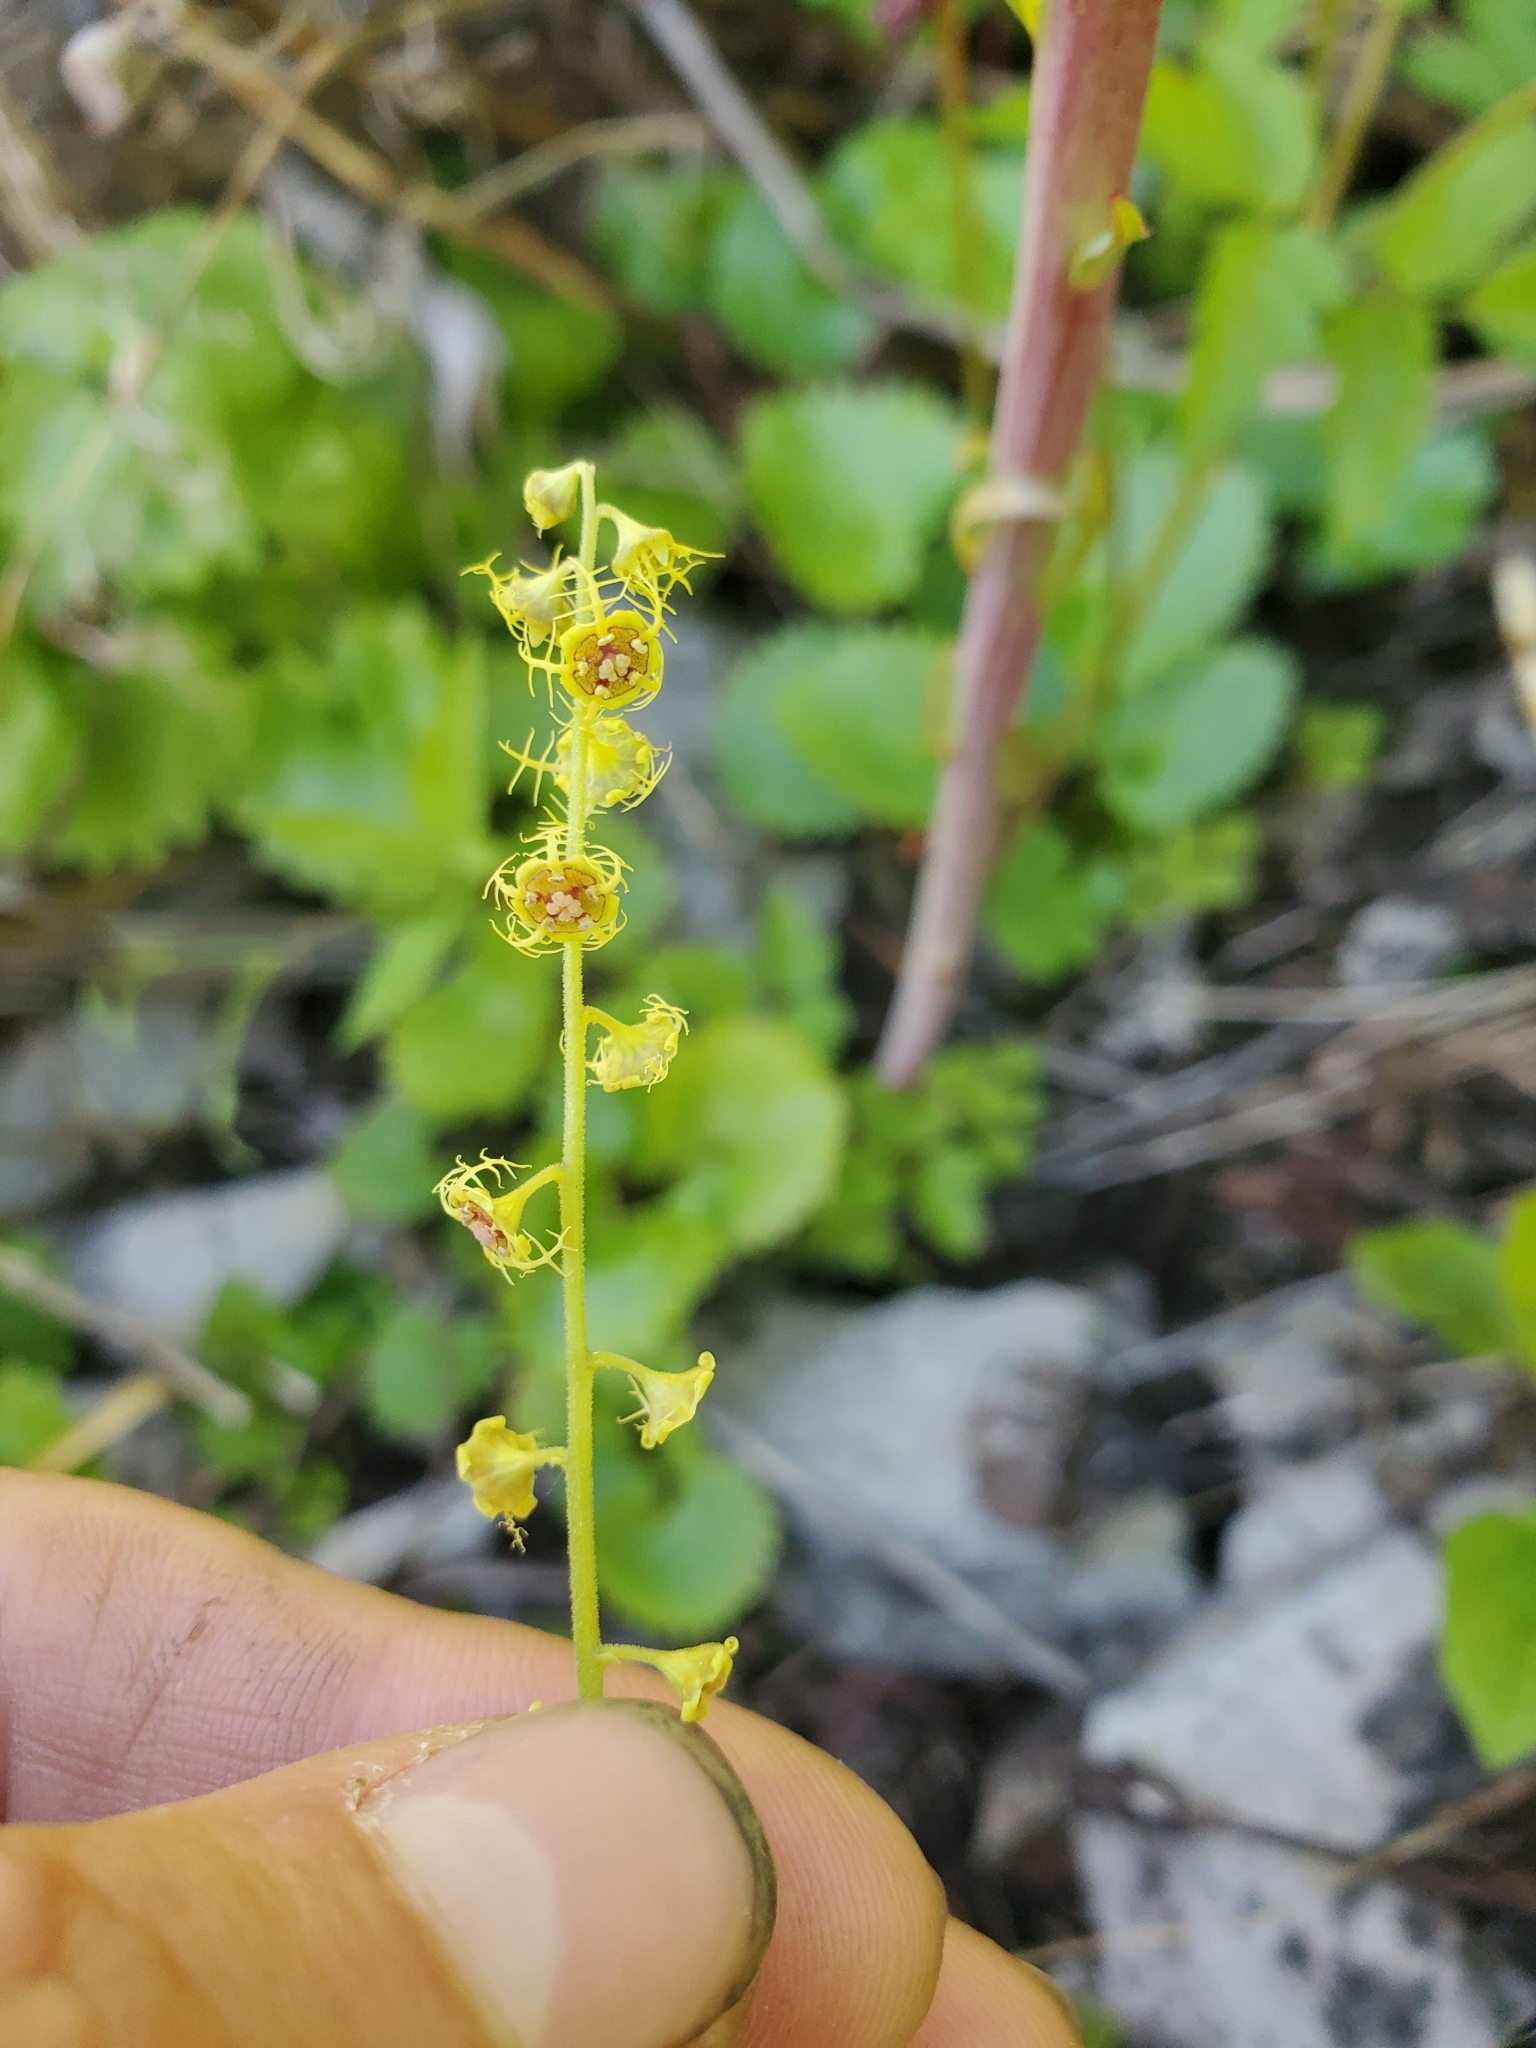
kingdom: Plantae
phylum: Tracheophyta
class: Magnoliopsida
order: Saxifragales
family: Saxifragaceae
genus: Pectiantia
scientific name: Pectiantia pentandra
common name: Alpine bishop's-cap
